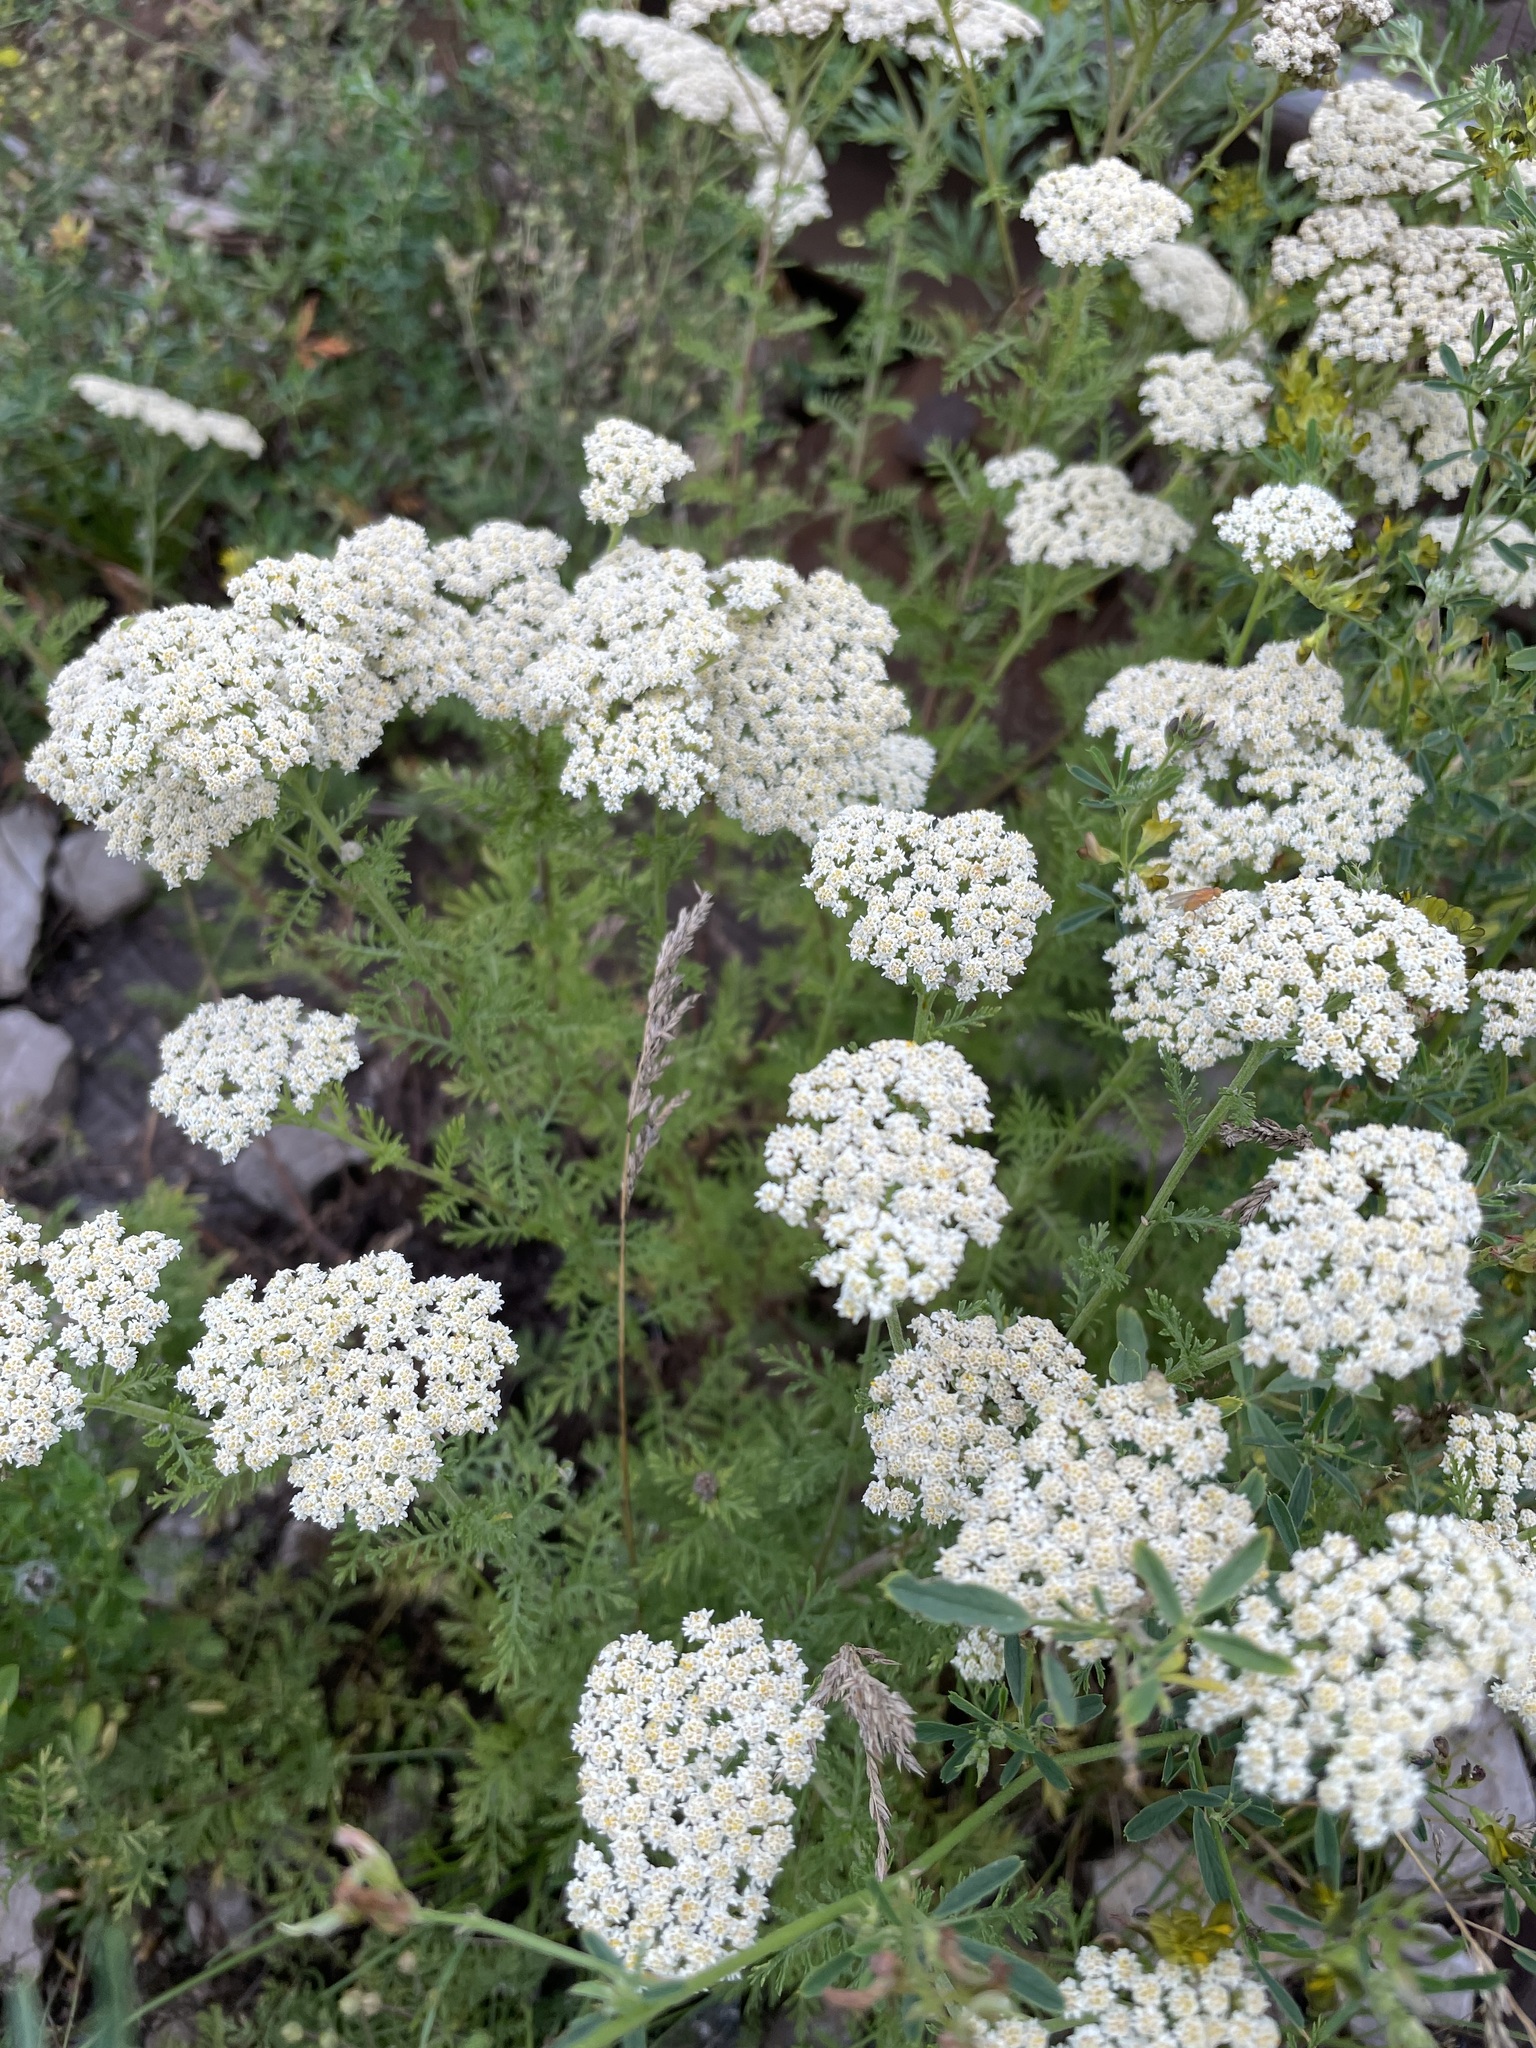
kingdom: Plantae
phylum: Tracheophyta
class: Magnoliopsida
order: Asterales
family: Asteraceae
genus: Achillea
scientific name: Achillea nobilis
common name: Noble yarrow
